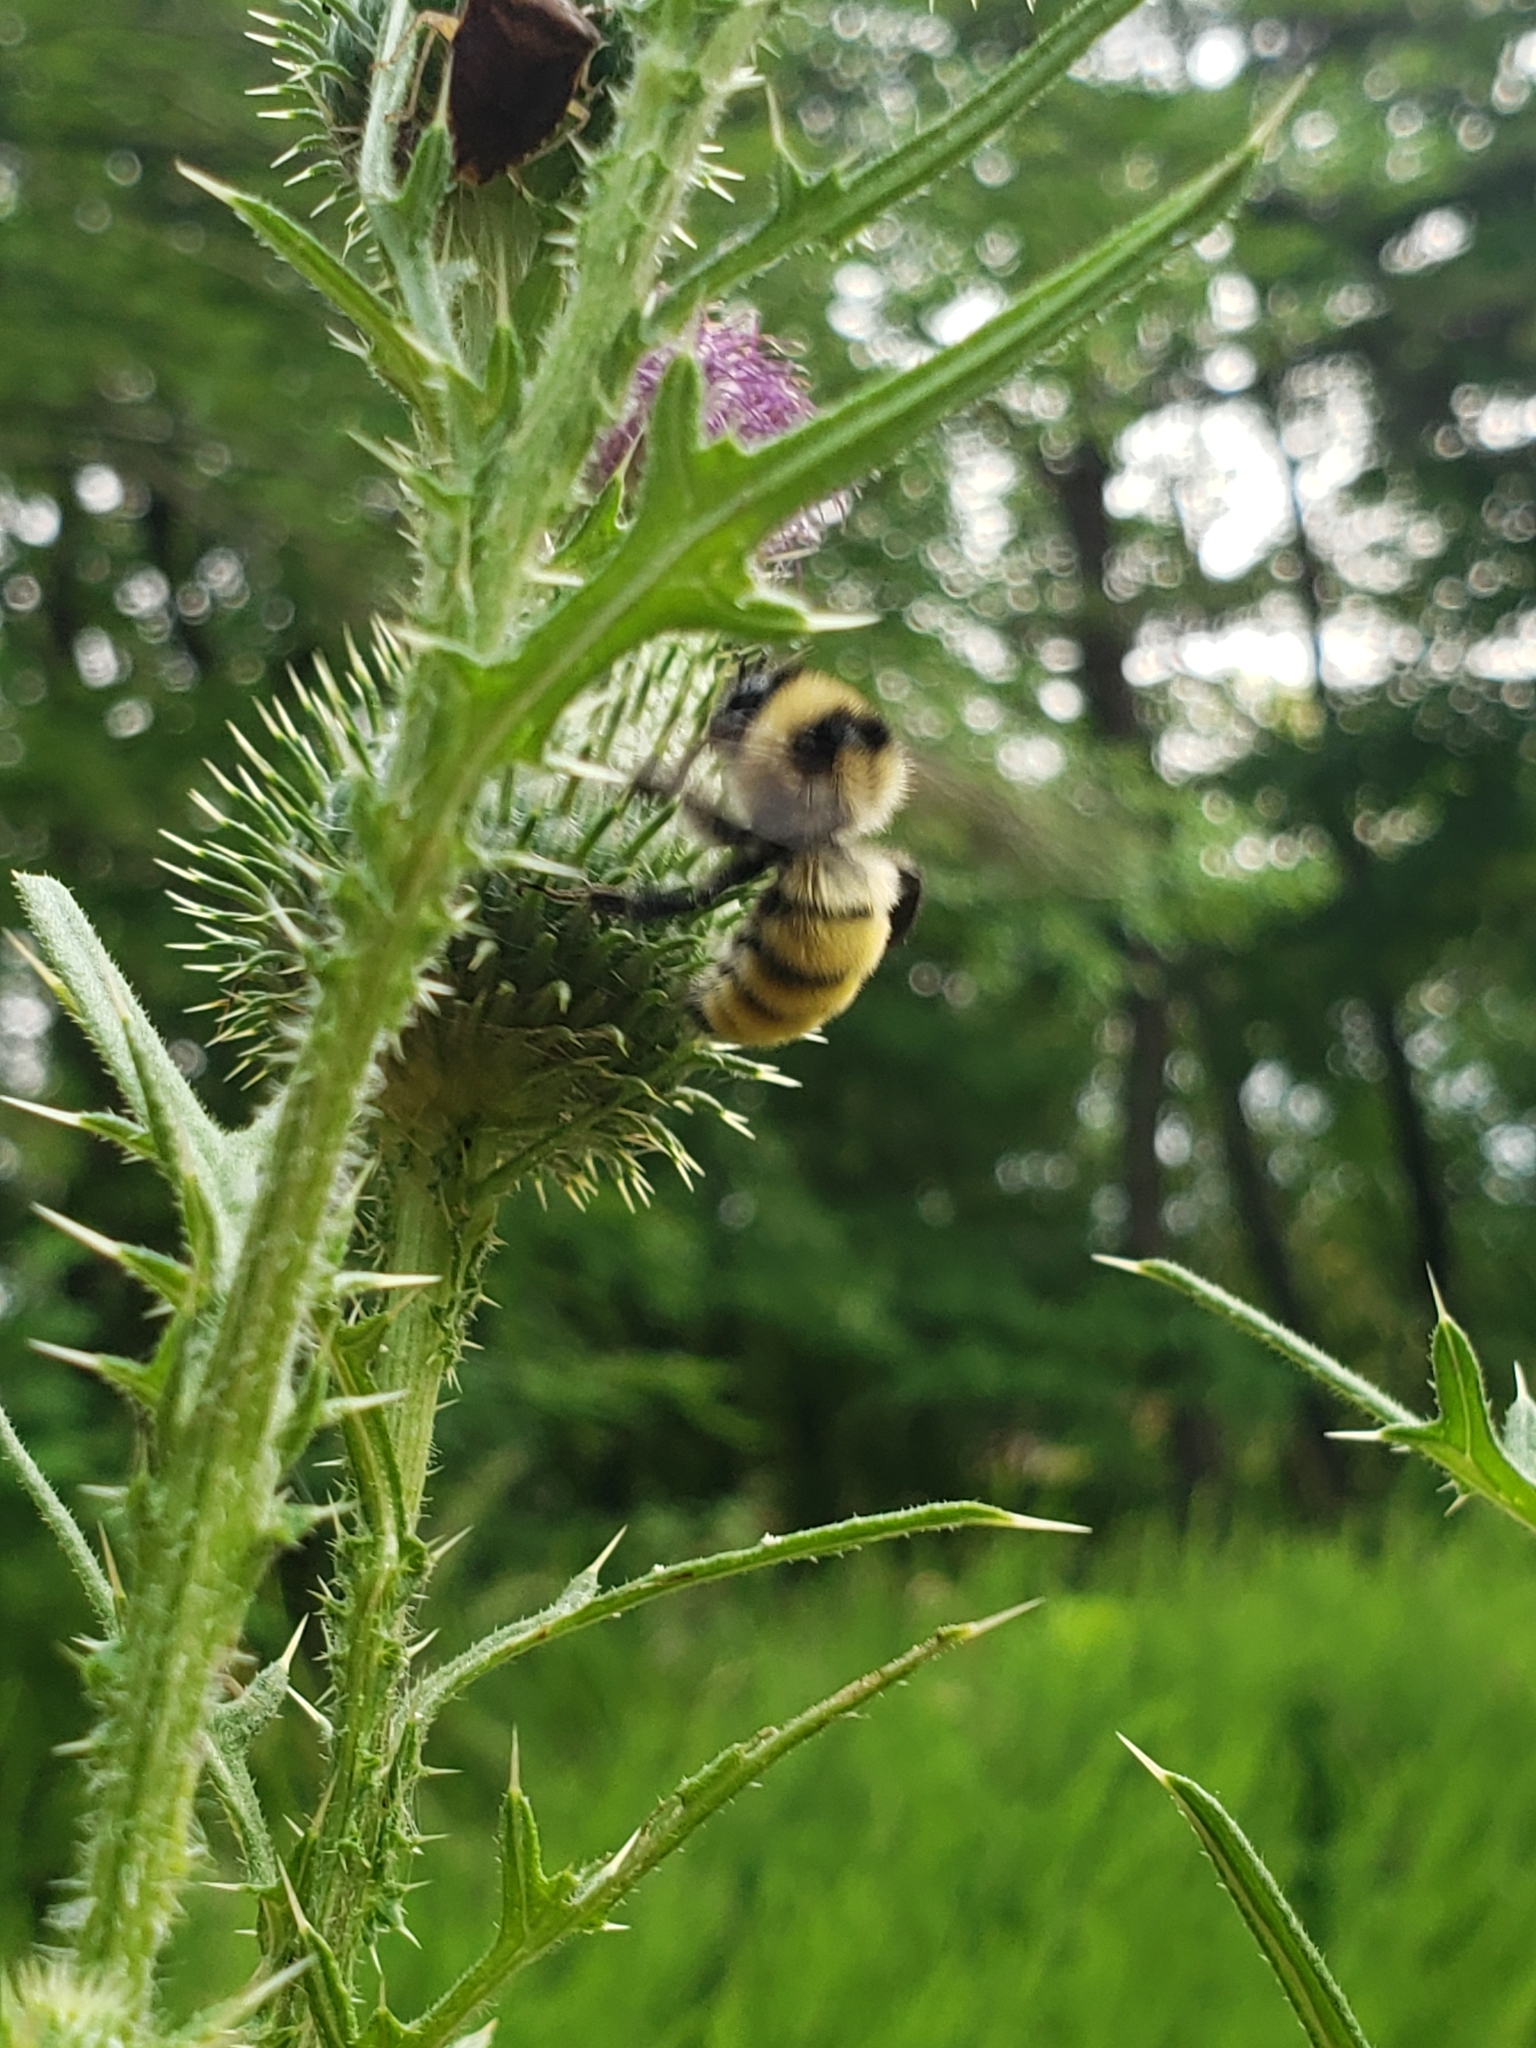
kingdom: Animalia
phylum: Arthropoda
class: Insecta
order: Hymenoptera
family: Apidae
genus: Bombus
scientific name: Bombus fervidus
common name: Yellow bumble bee
